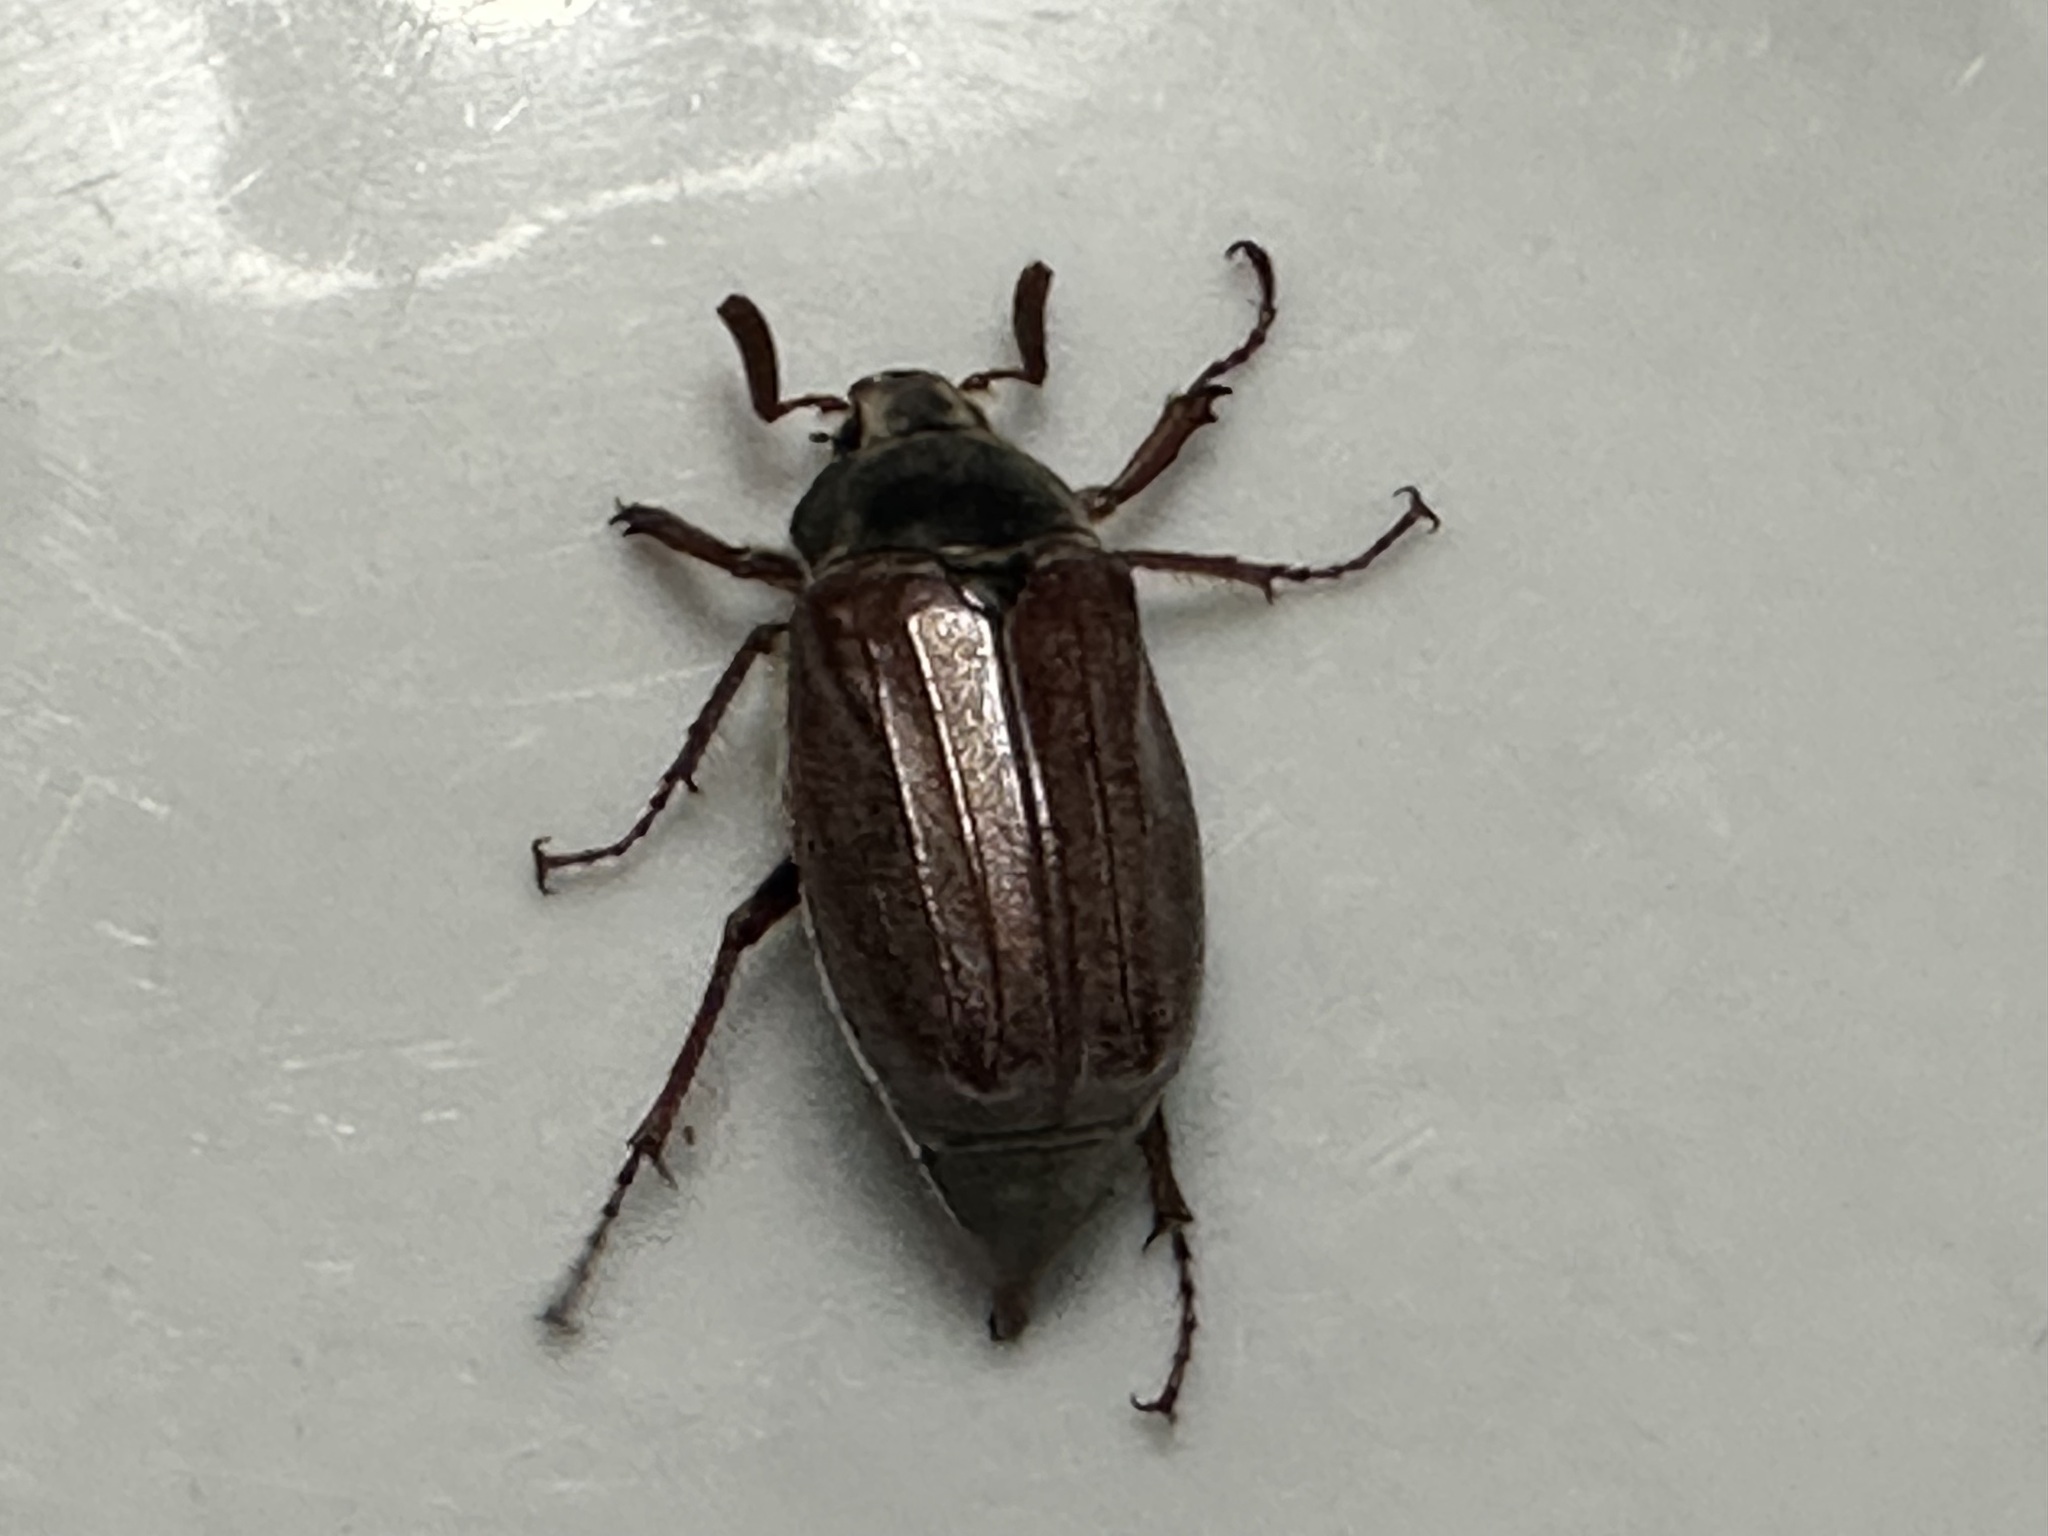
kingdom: Animalia
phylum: Arthropoda
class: Insecta
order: Coleoptera
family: Scarabaeidae
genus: Melolontha
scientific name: Melolontha melolontha
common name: Cockchafer maybeetle
